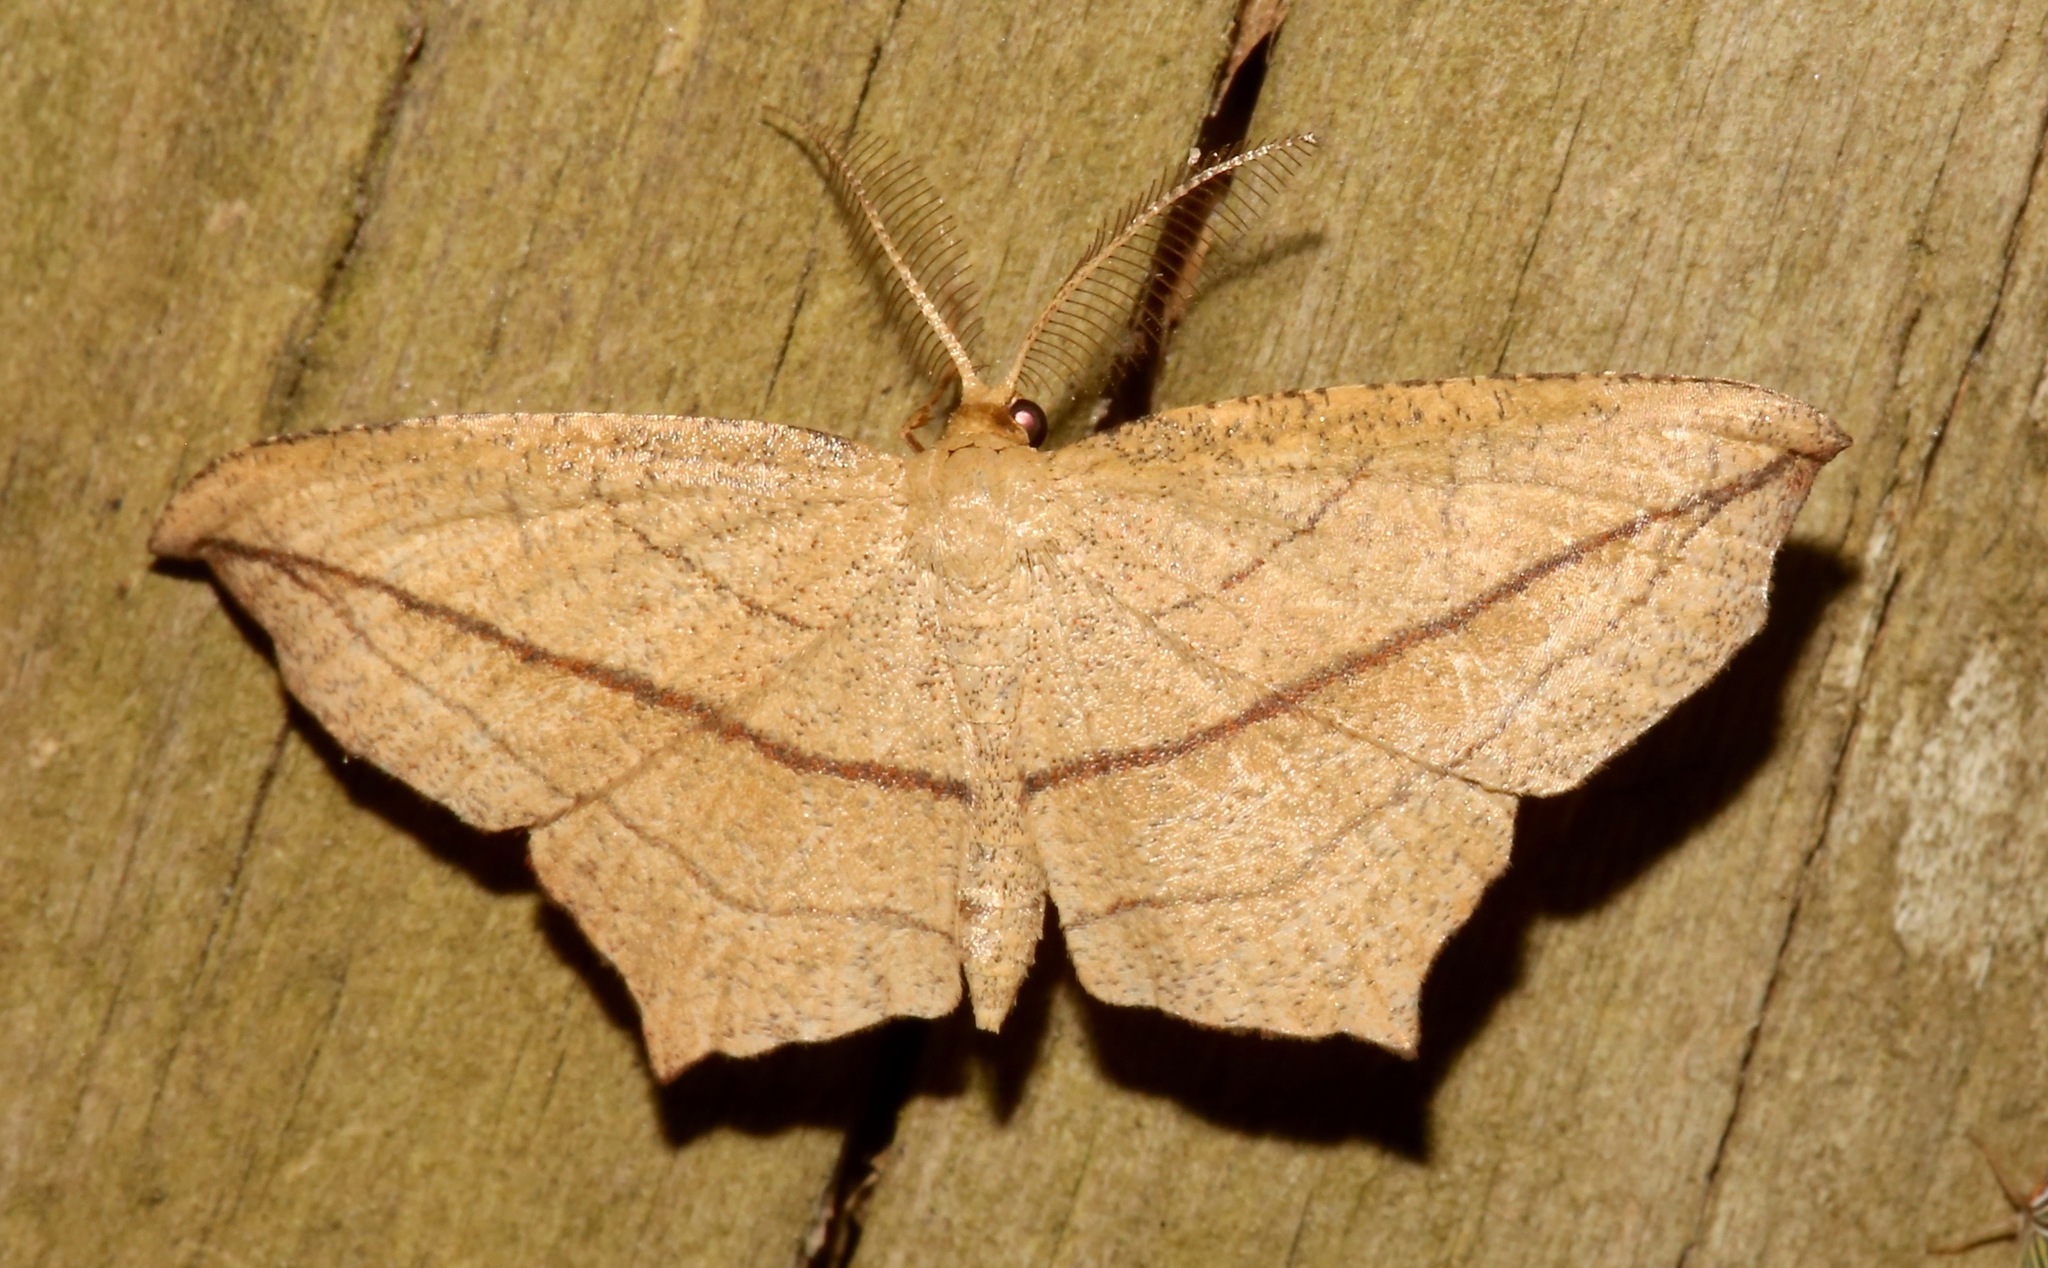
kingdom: Animalia
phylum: Arthropoda
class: Insecta
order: Lepidoptera
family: Geometridae
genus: Timandra
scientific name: Timandra amaturaria
